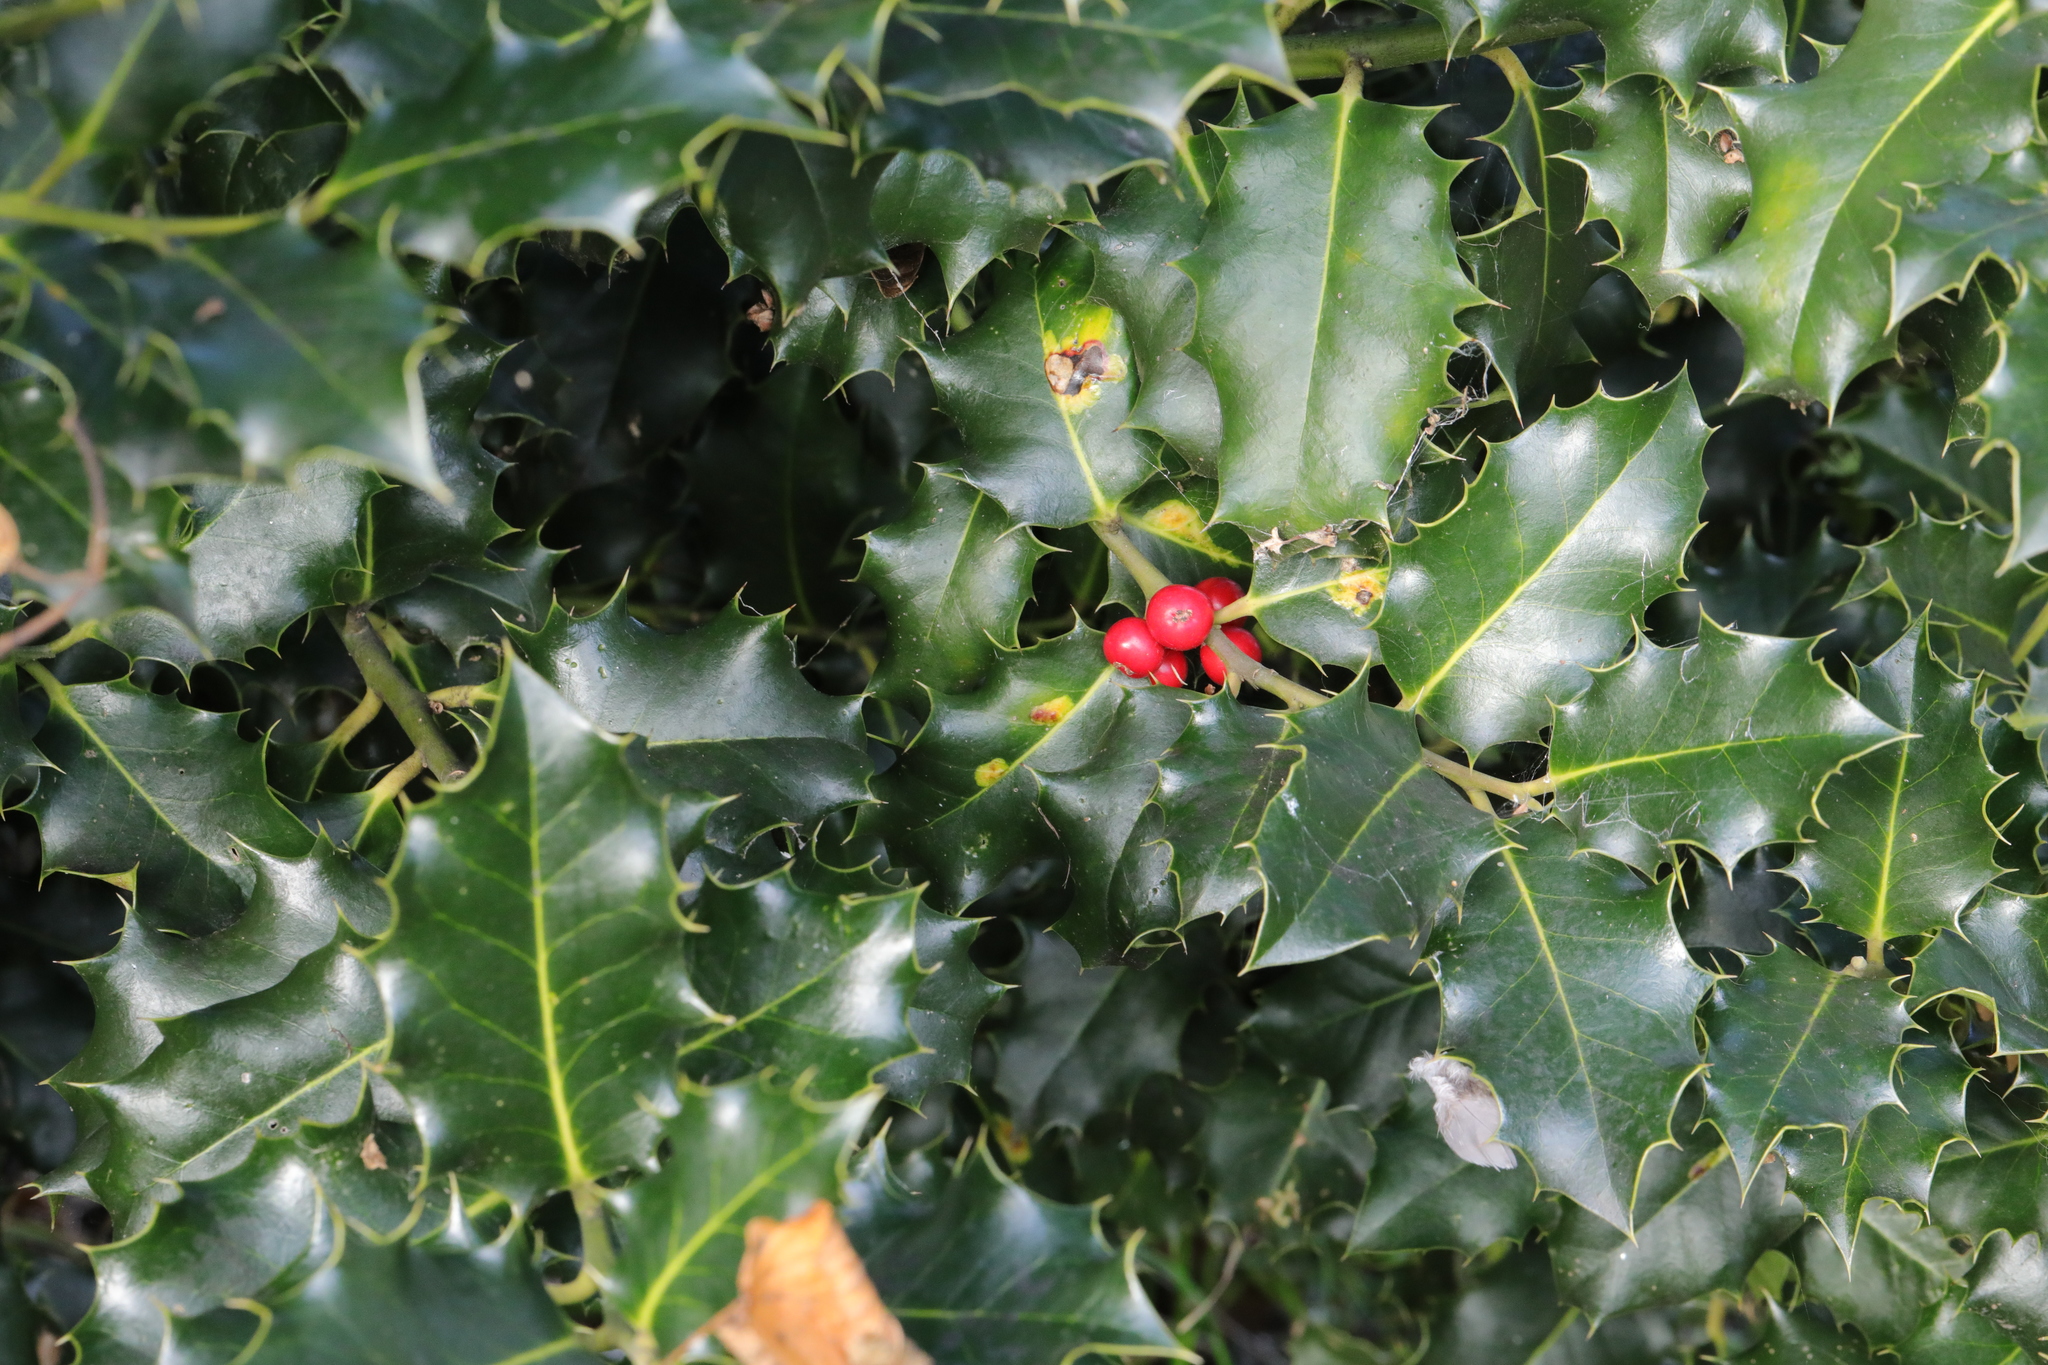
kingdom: Animalia
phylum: Arthropoda
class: Insecta
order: Diptera
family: Agromyzidae
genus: Phytomyza
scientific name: Phytomyza ilicis
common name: Holly leafminer
